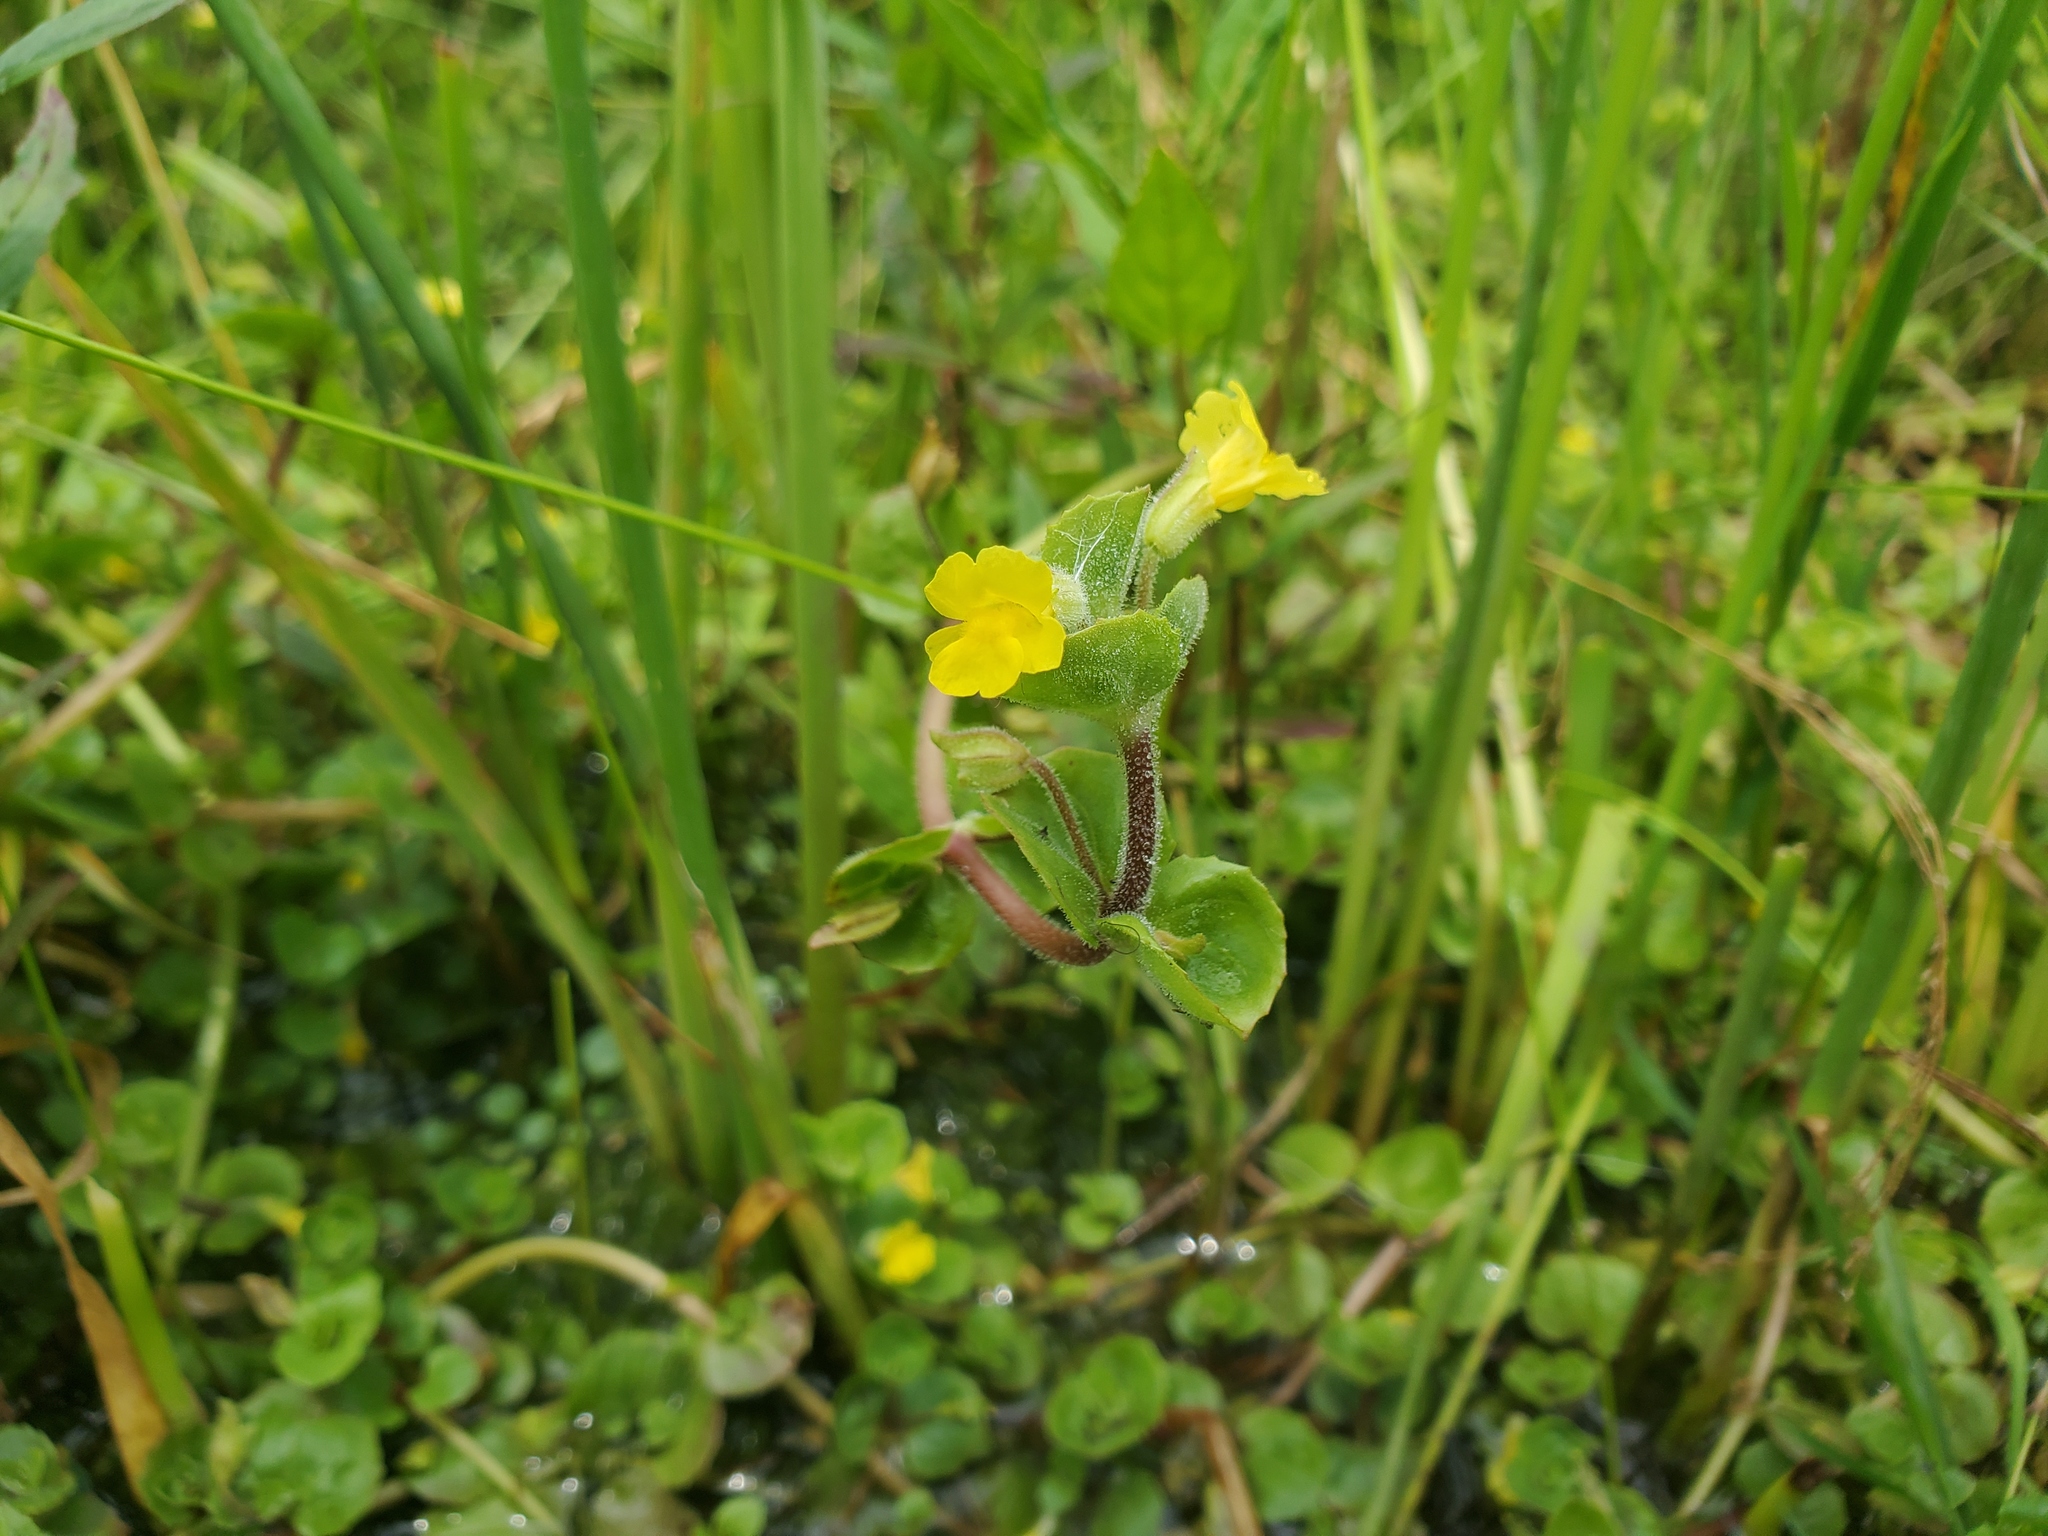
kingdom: Plantae
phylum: Tracheophyta
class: Magnoliopsida
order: Lamiales
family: Phrymaceae
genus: Erythranthe
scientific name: Erythranthe geyeri
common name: Geyer's monkeyflower
